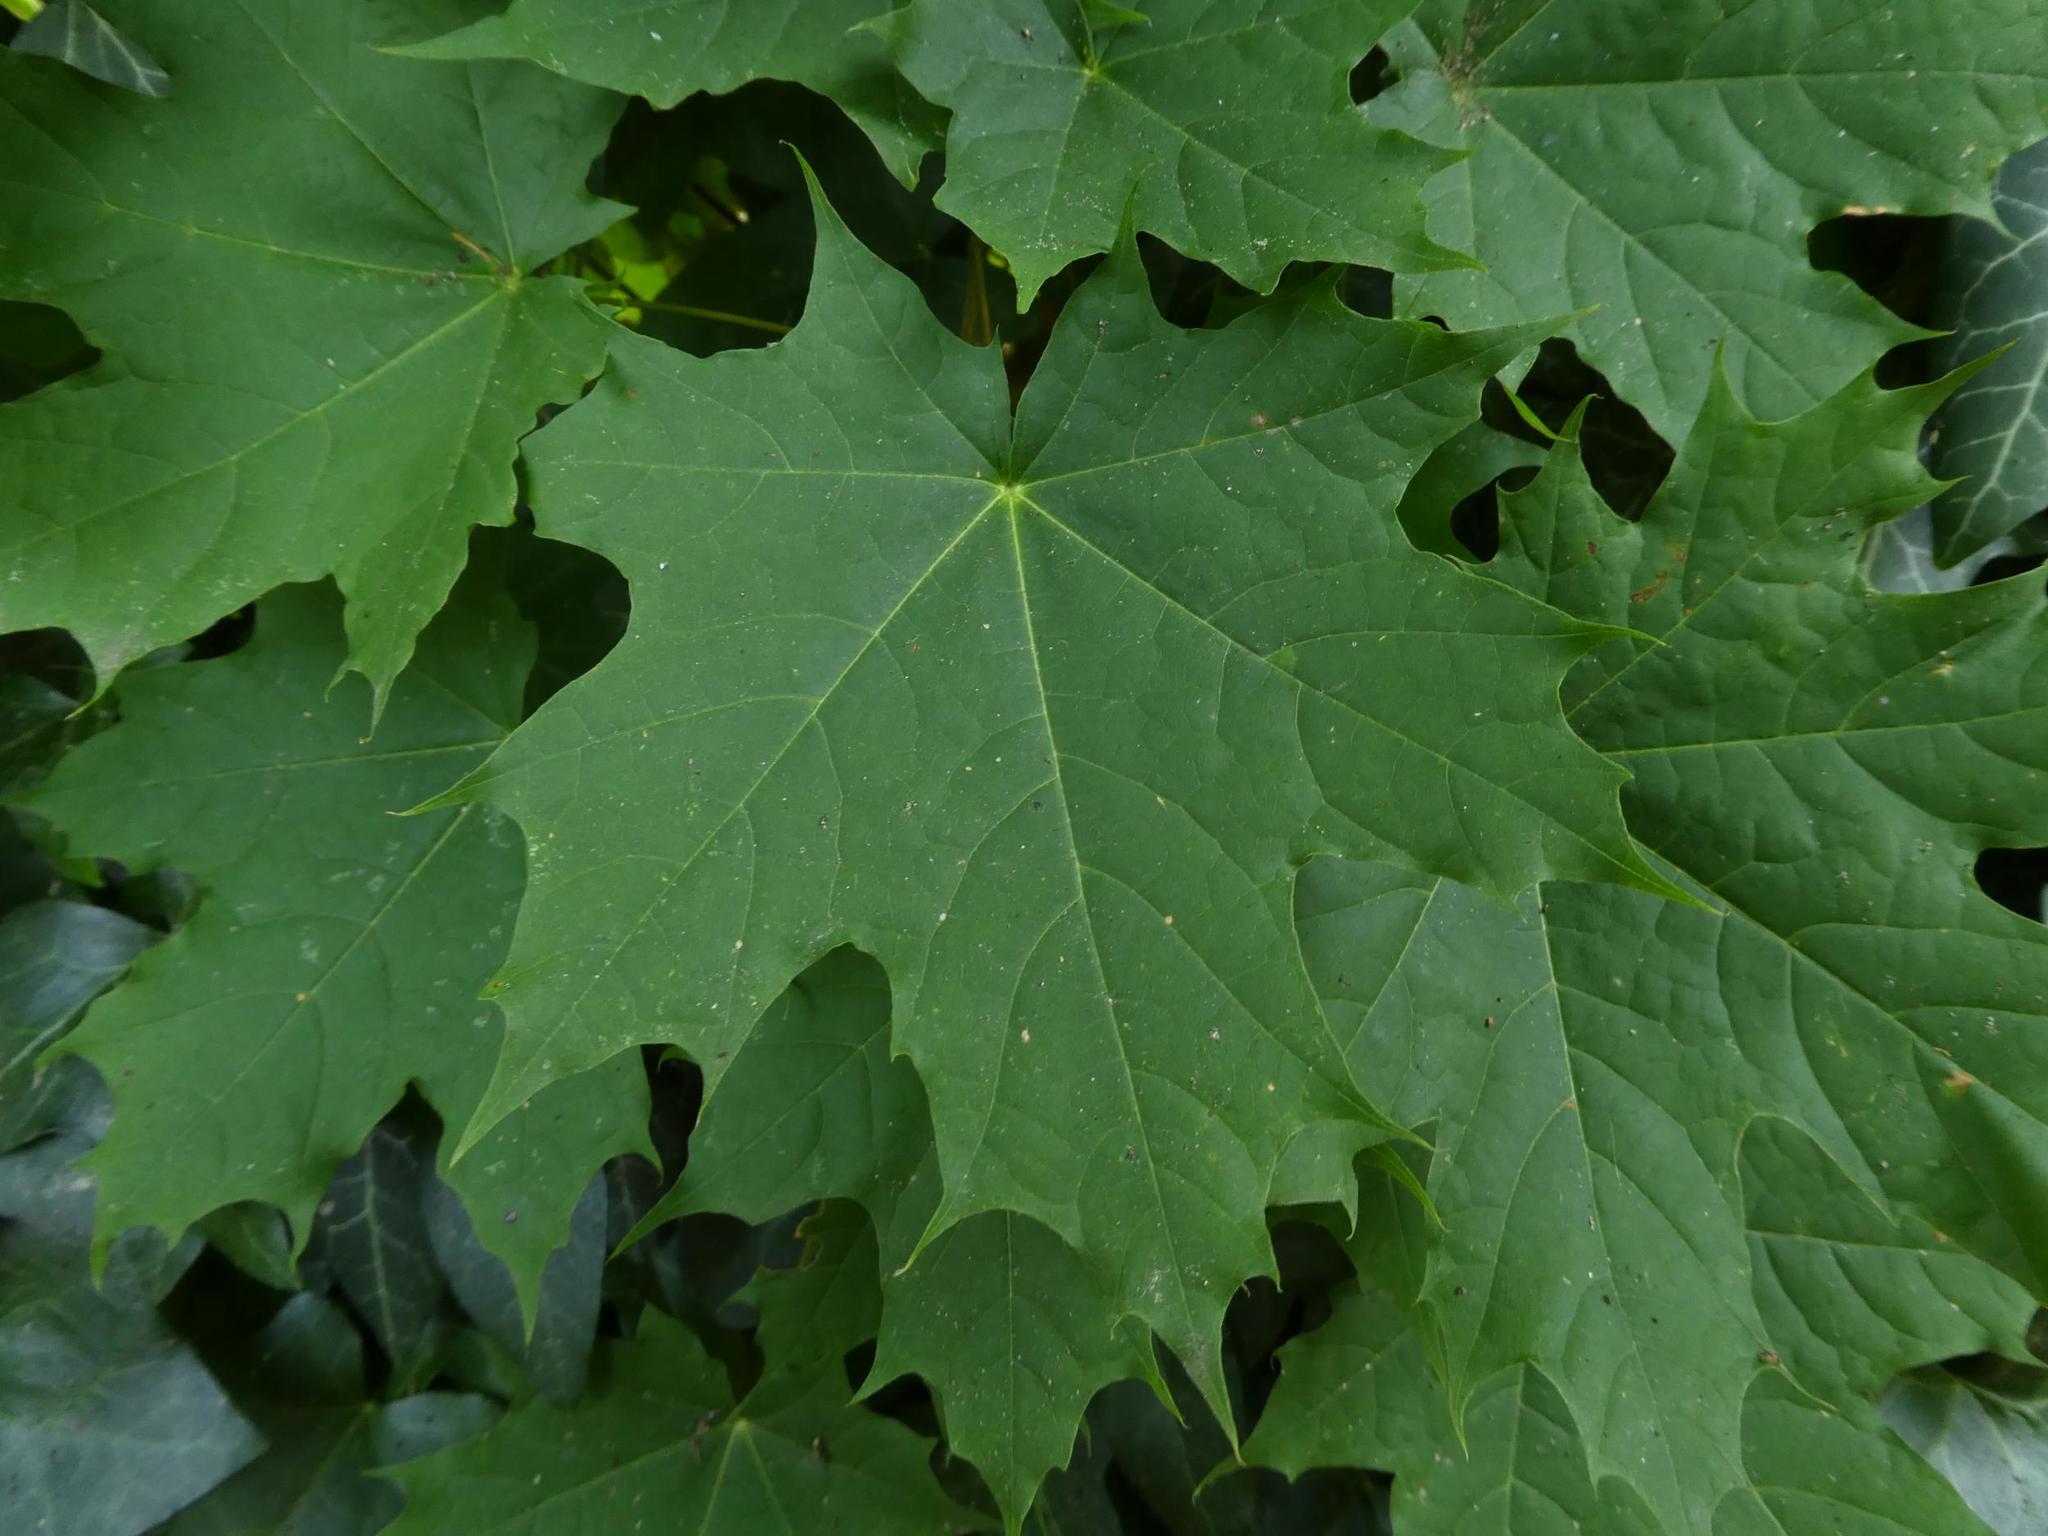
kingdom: Plantae
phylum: Tracheophyta
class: Magnoliopsida
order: Sapindales
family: Sapindaceae
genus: Acer
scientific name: Acer platanoides
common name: Norway maple
